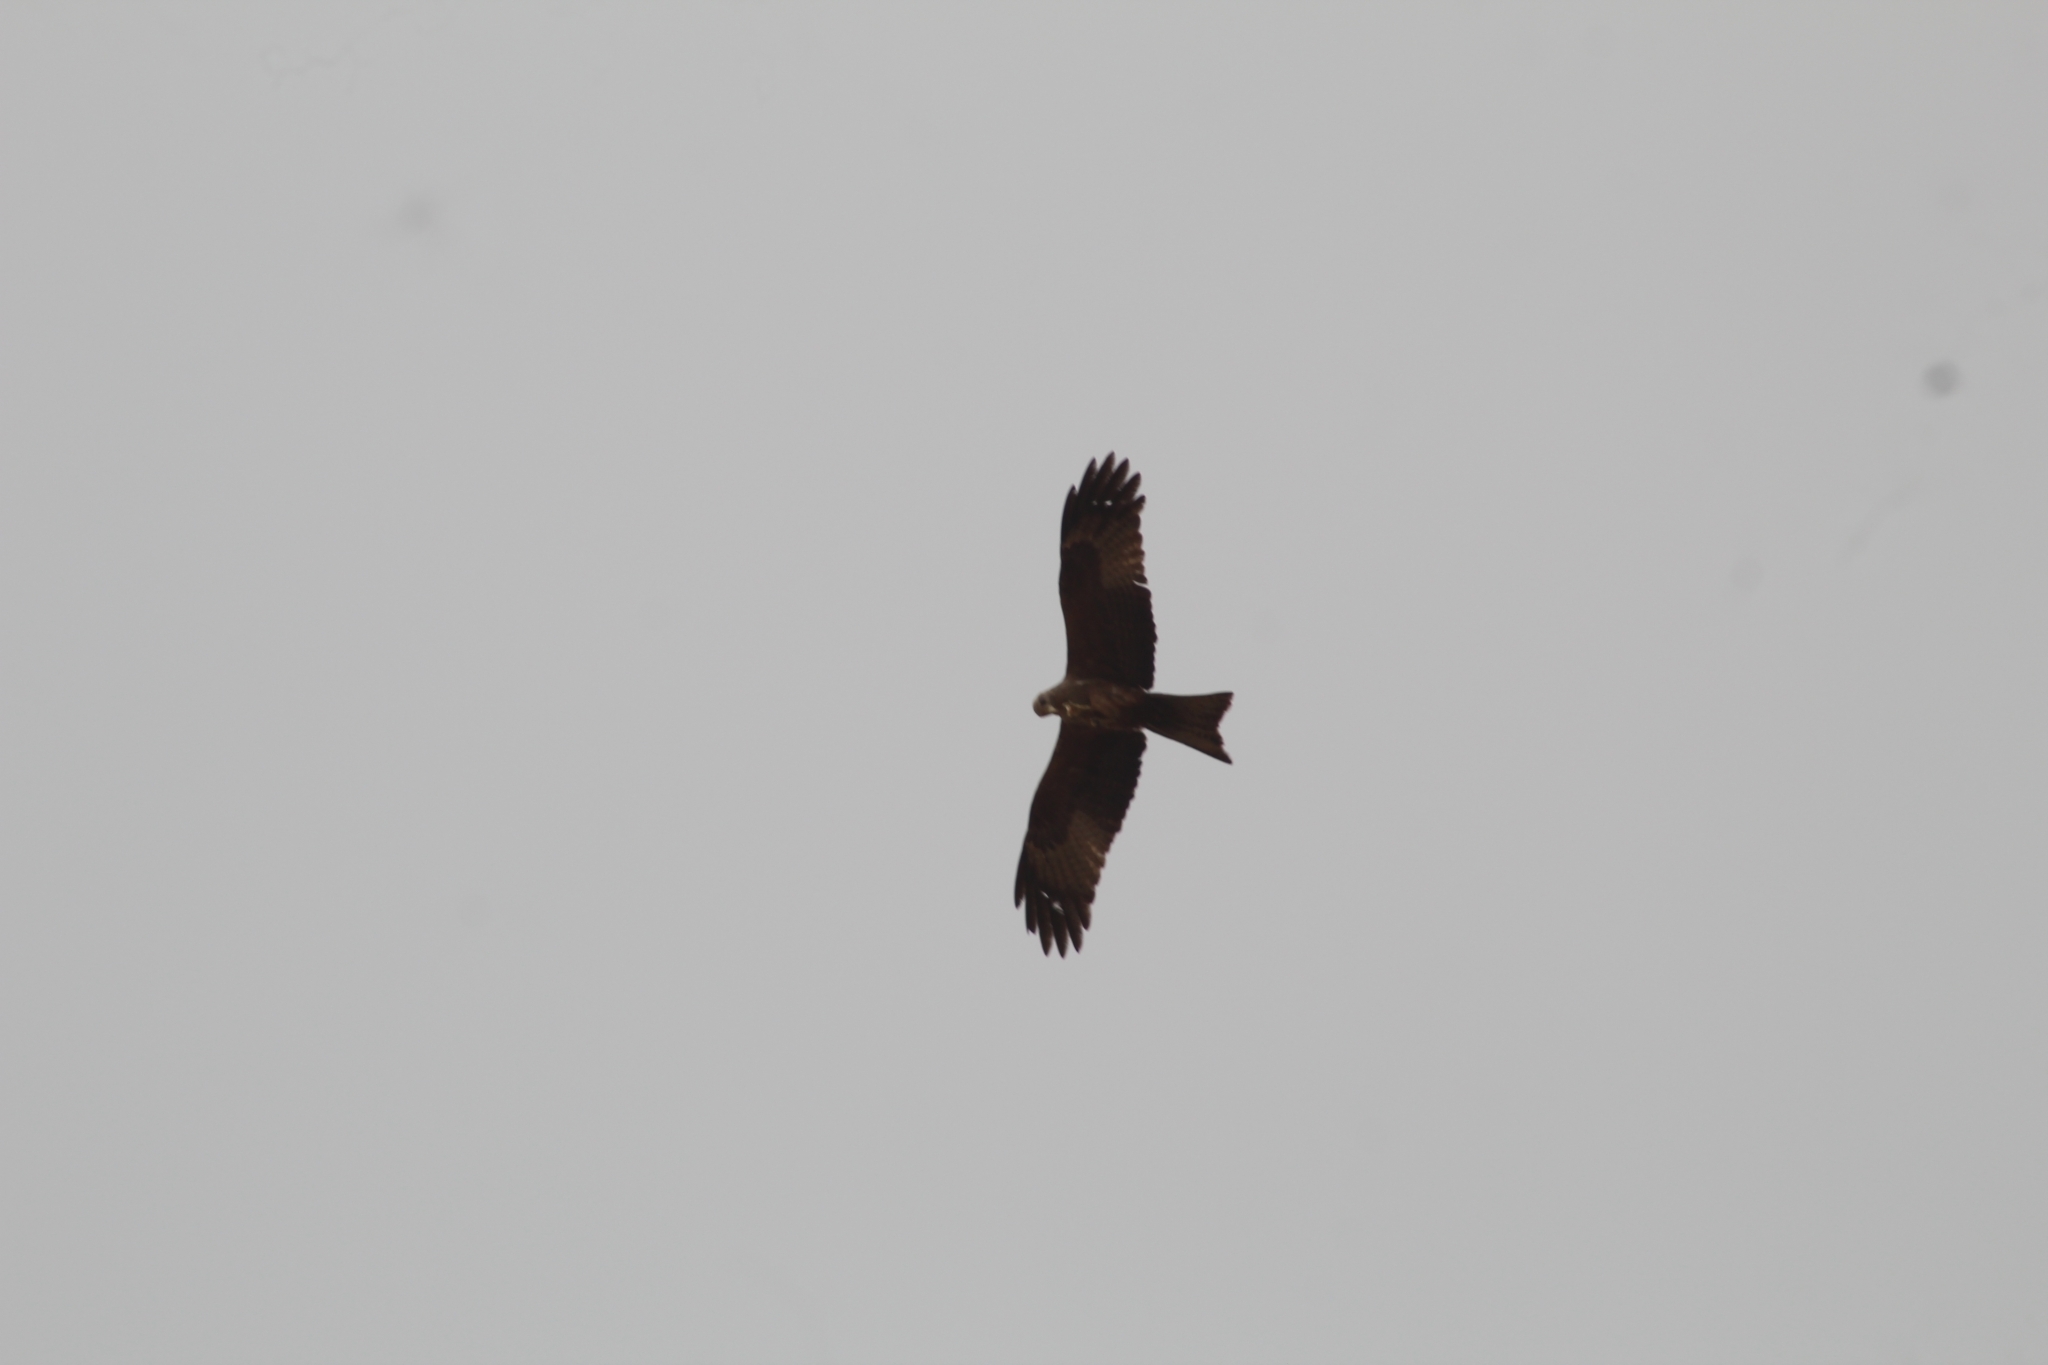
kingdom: Animalia
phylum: Chordata
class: Aves
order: Accipitriformes
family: Accipitridae
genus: Milvus
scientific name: Milvus migrans
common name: Black kite
